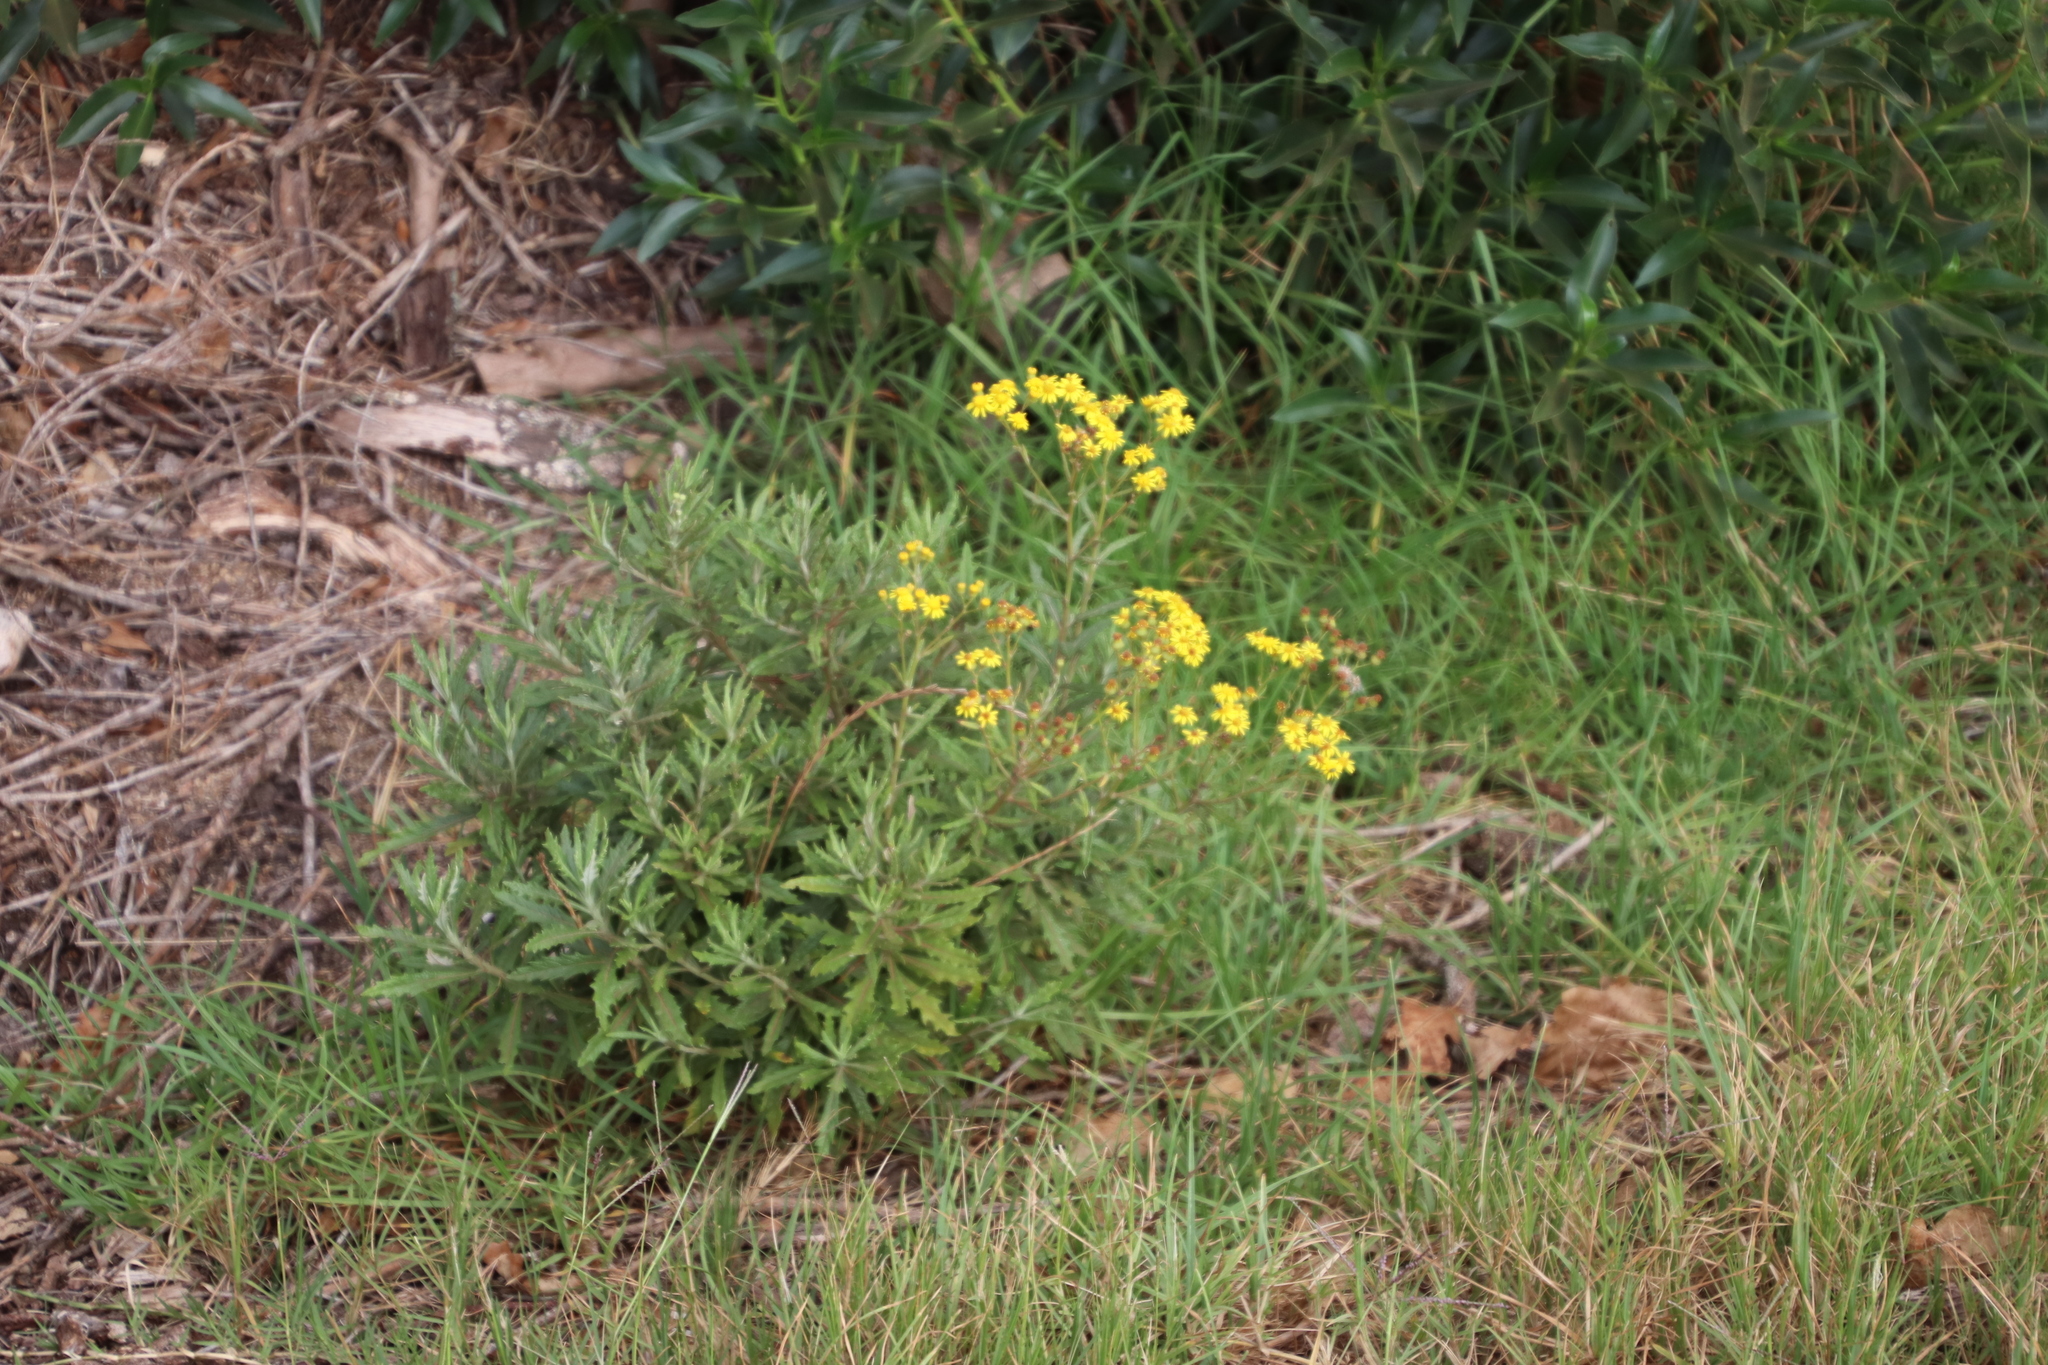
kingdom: Plantae
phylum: Tracheophyta
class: Magnoliopsida
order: Asterales
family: Asteraceae
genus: Senecio
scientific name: Senecio pterophorus
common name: Shoddy ragwort
